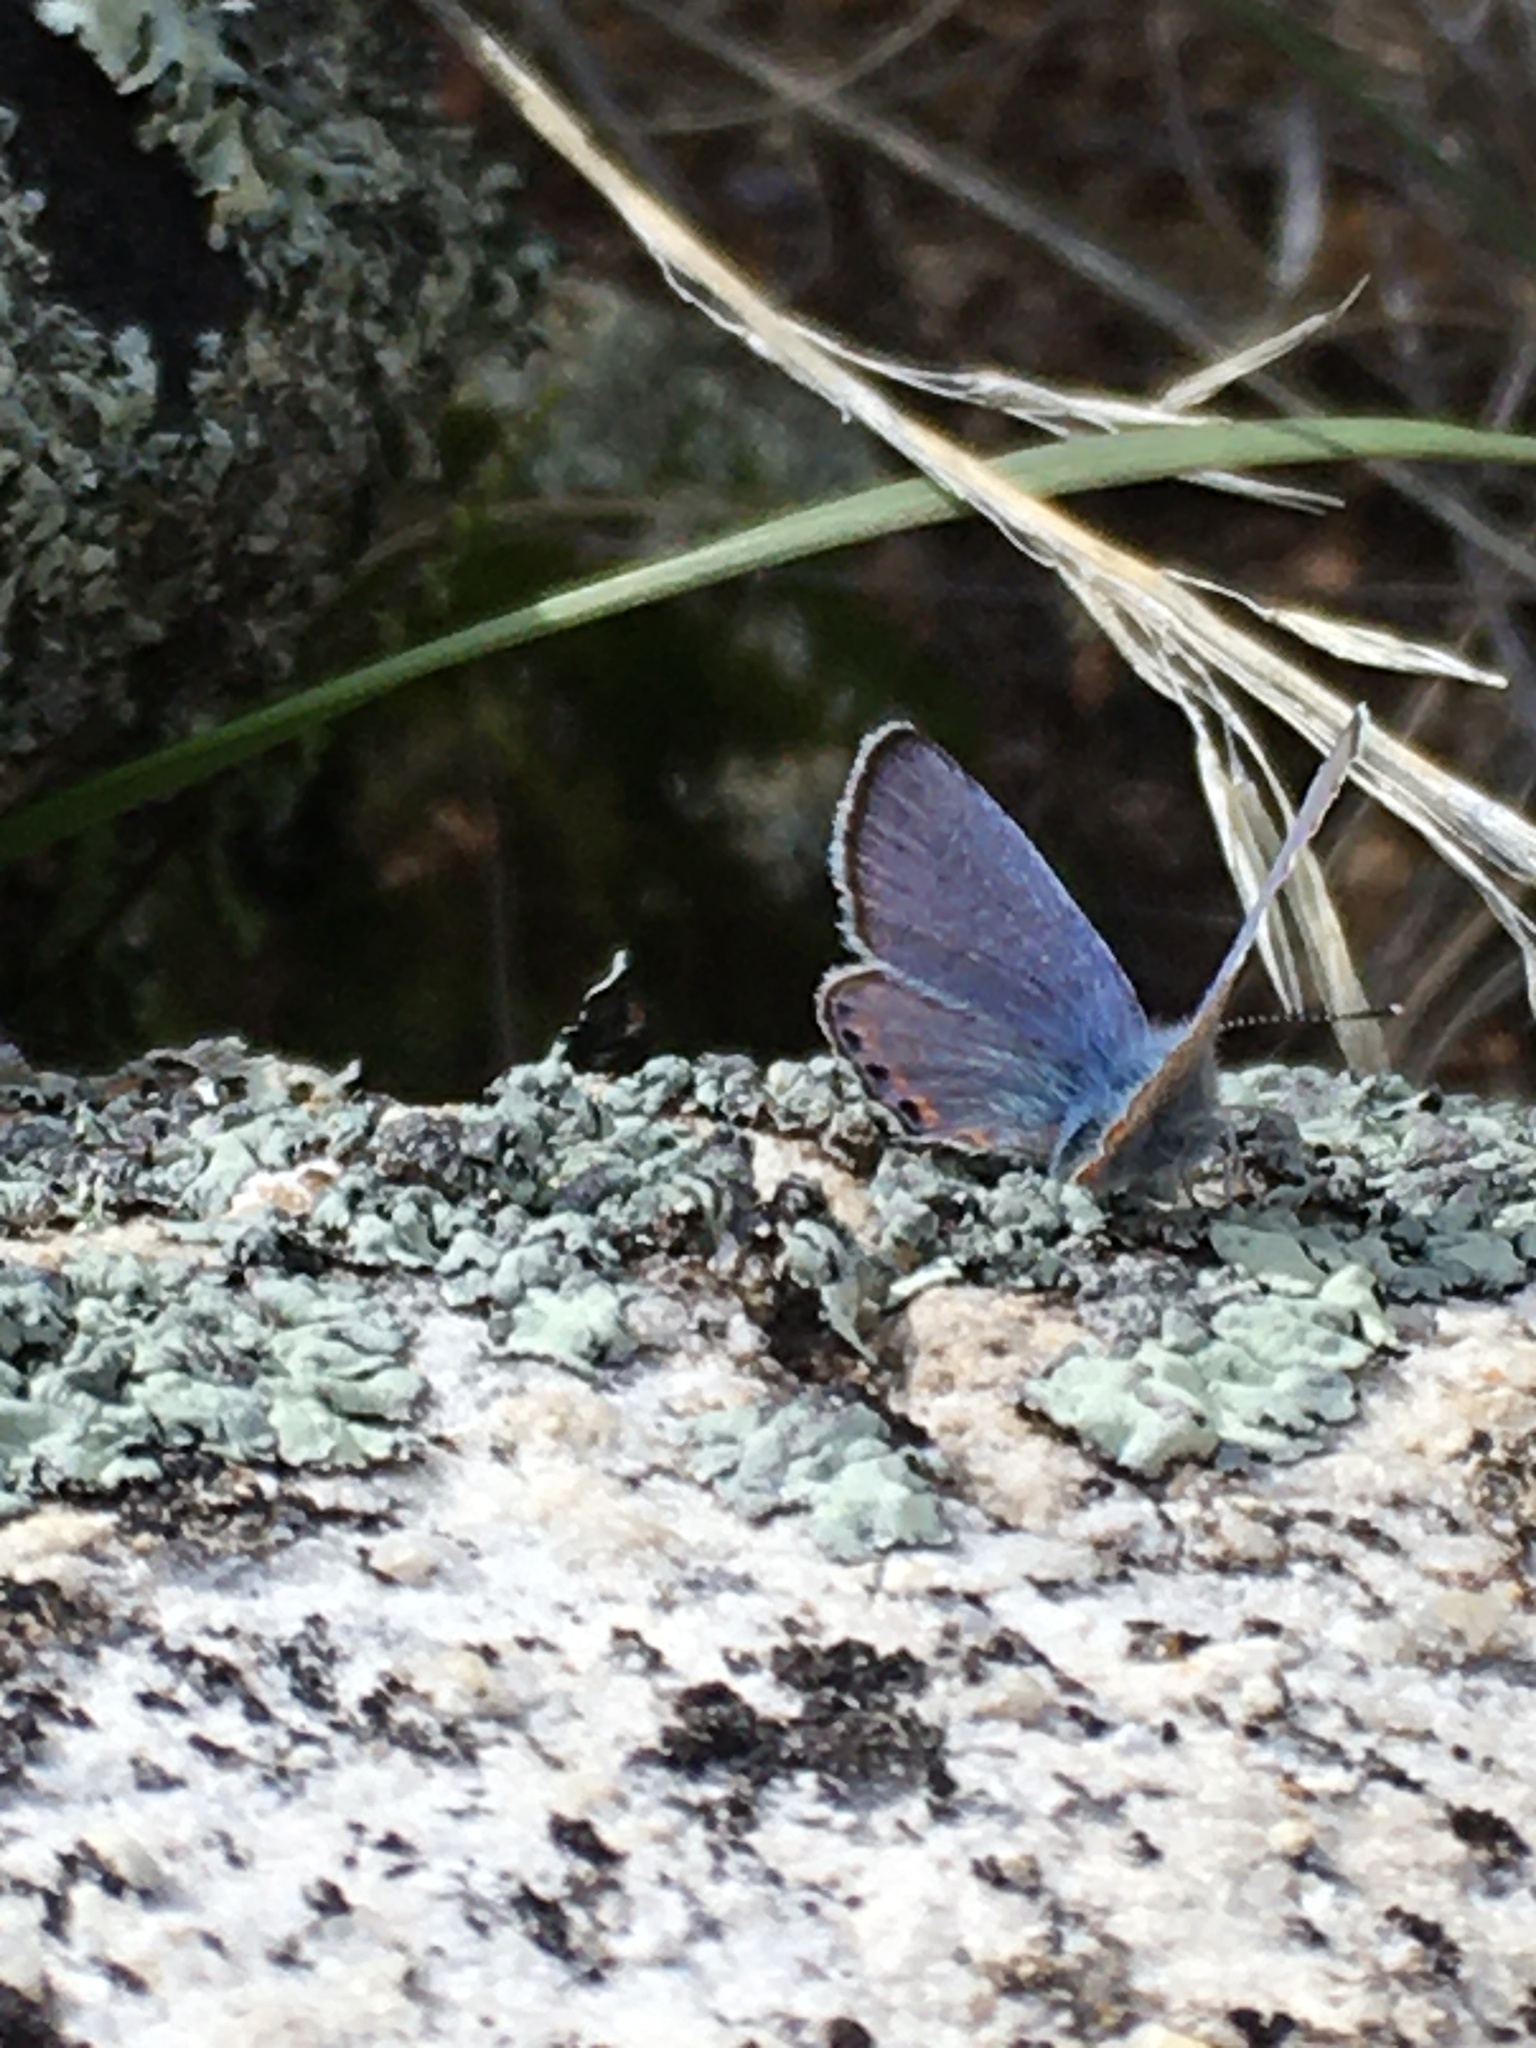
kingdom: Animalia
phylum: Arthropoda
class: Insecta
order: Lepidoptera
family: Lycaenidae
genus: Icaricia
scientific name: Icaricia acmon
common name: Acmon blue
